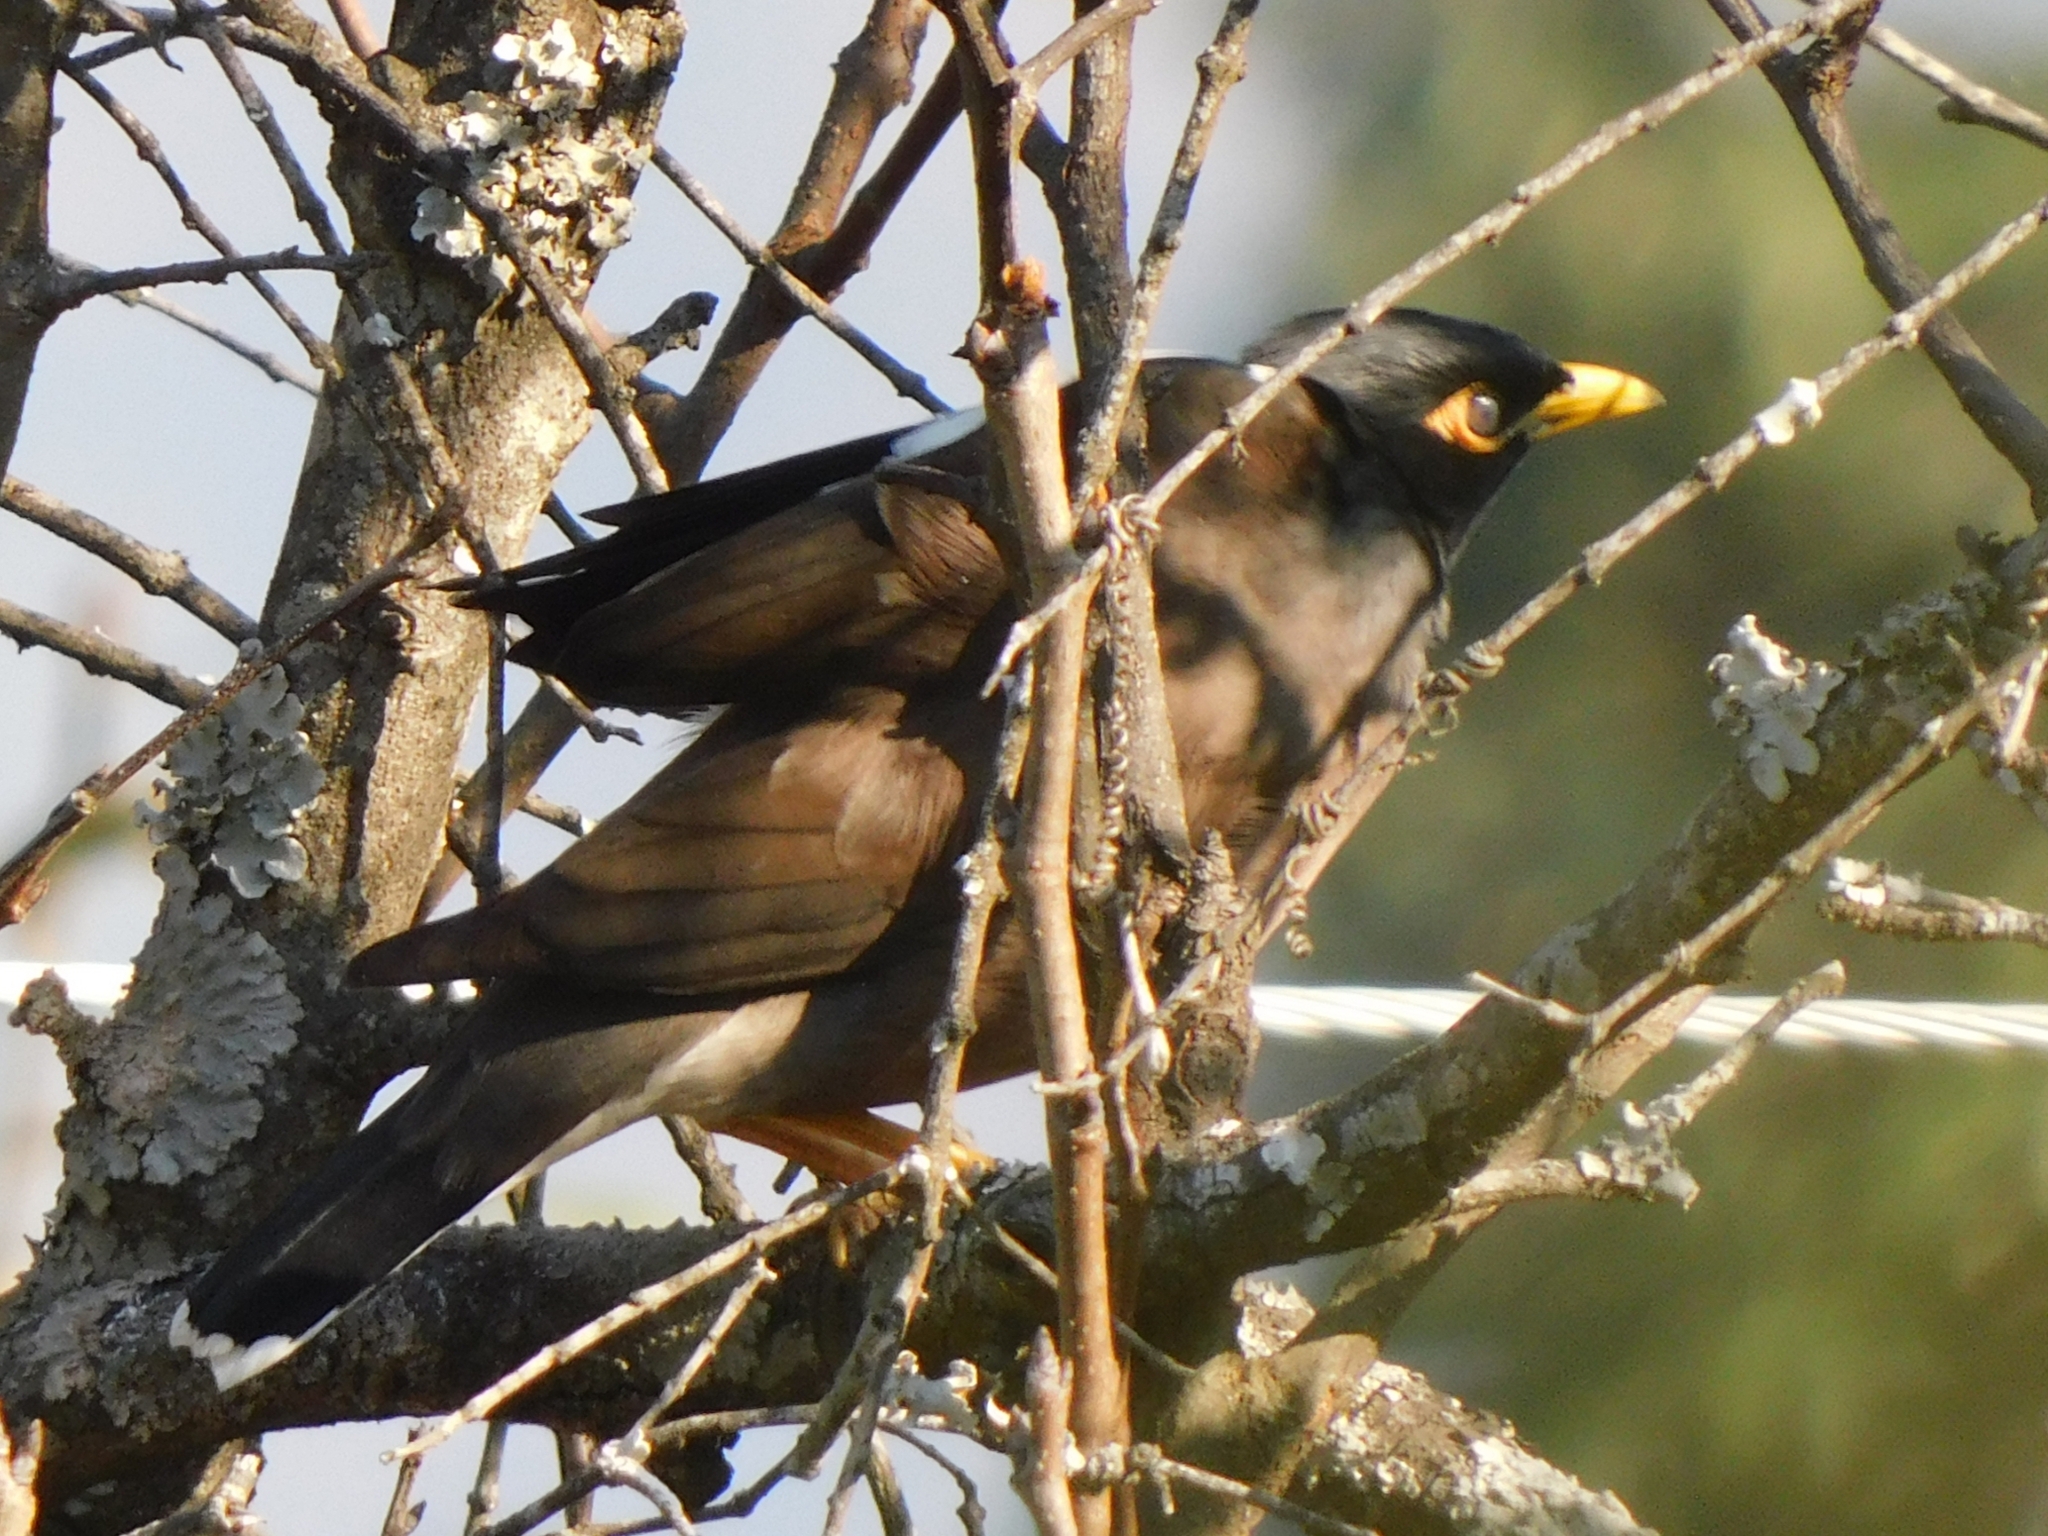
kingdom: Animalia
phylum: Chordata
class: Aves
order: Passeriformes
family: Sturnidae
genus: Acridotheres
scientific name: Acridotheres tristis
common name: Common myna
